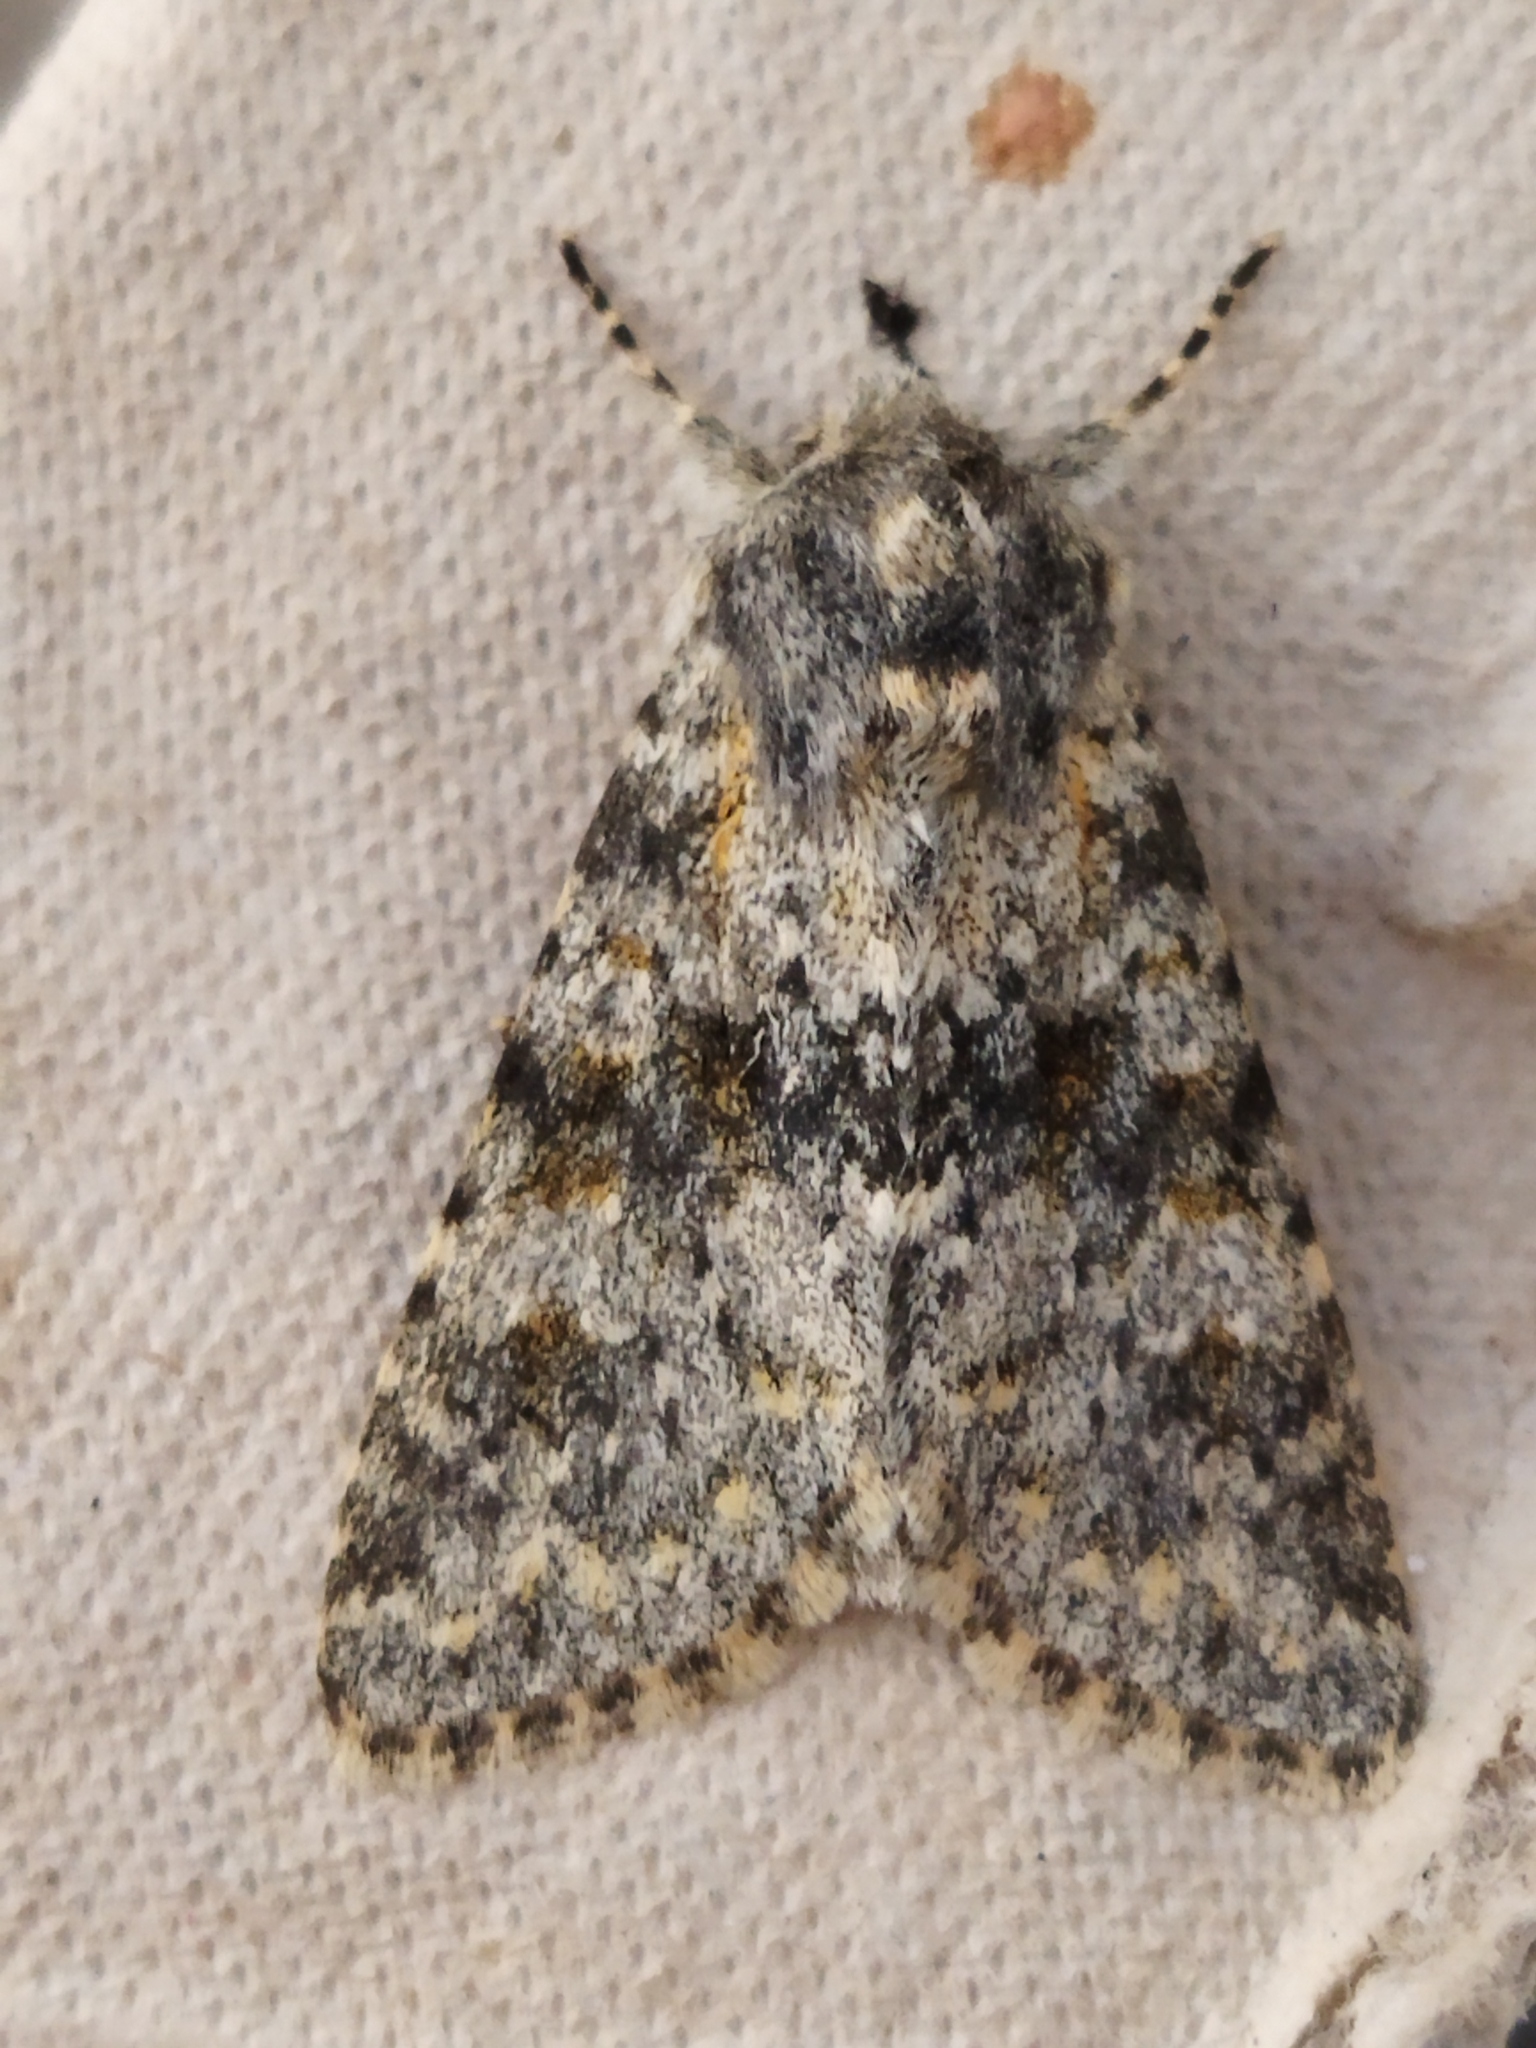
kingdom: Animalia
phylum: Arthropoda
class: Insecta
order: Lepidoptera
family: Noctuidae
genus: Polymixis
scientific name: Polymixis rufocincta
